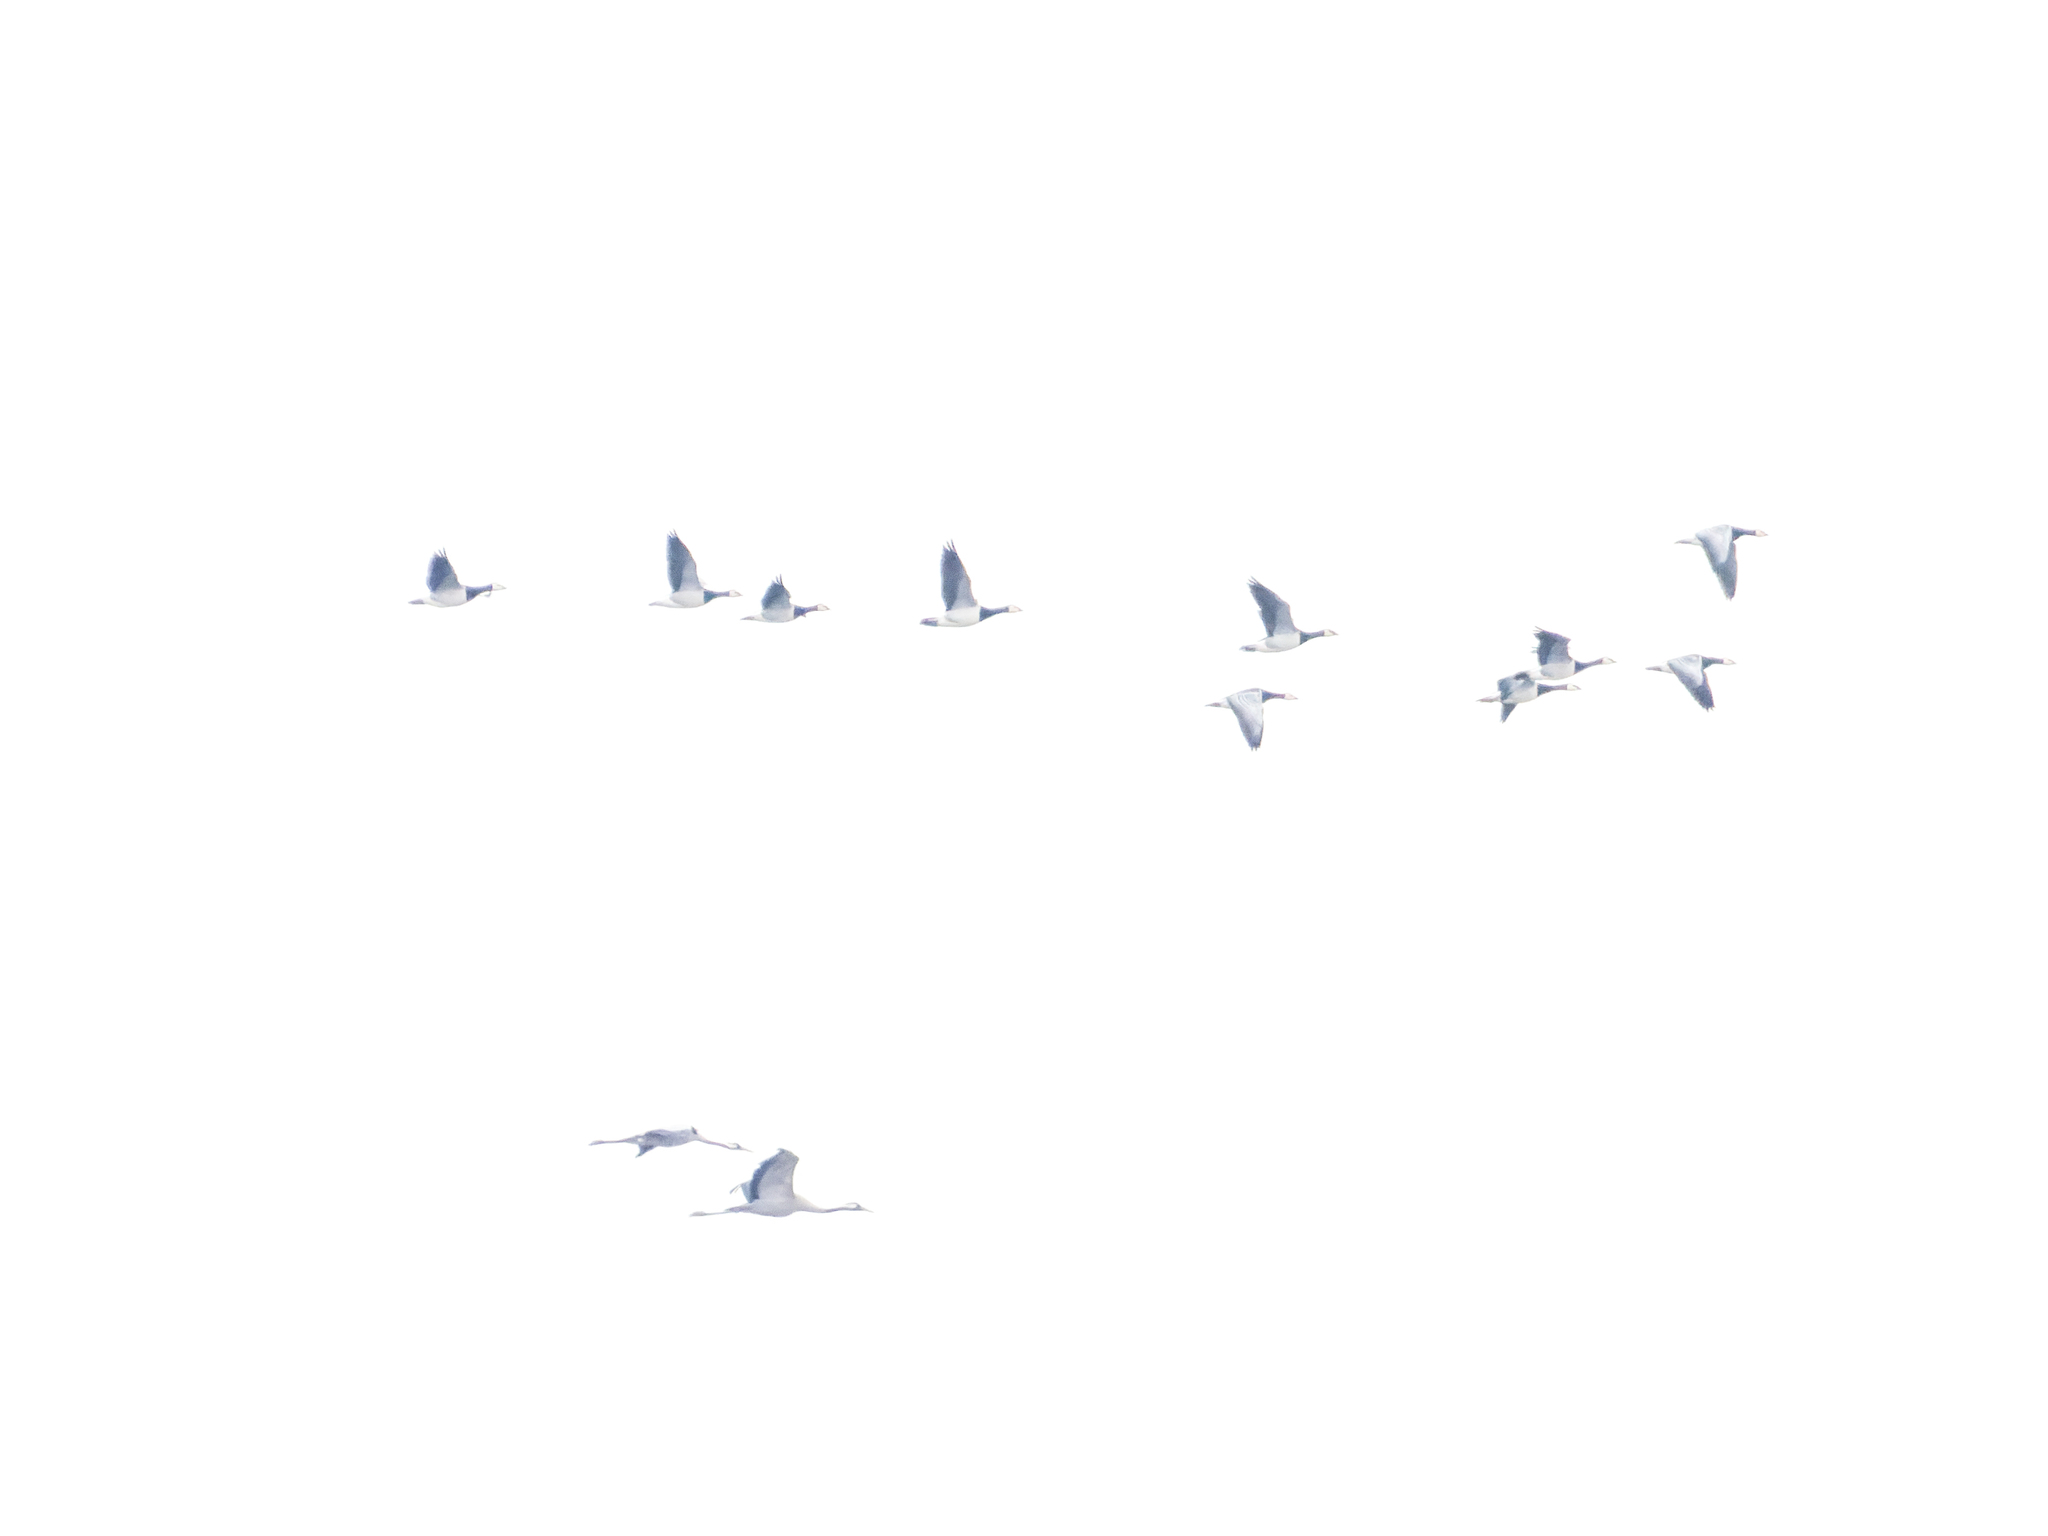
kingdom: Animalia
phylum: Chordata
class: Aves
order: Anseriformes
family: Anatidae
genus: Branta
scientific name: Branta leucopsis
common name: Barnacle goose
